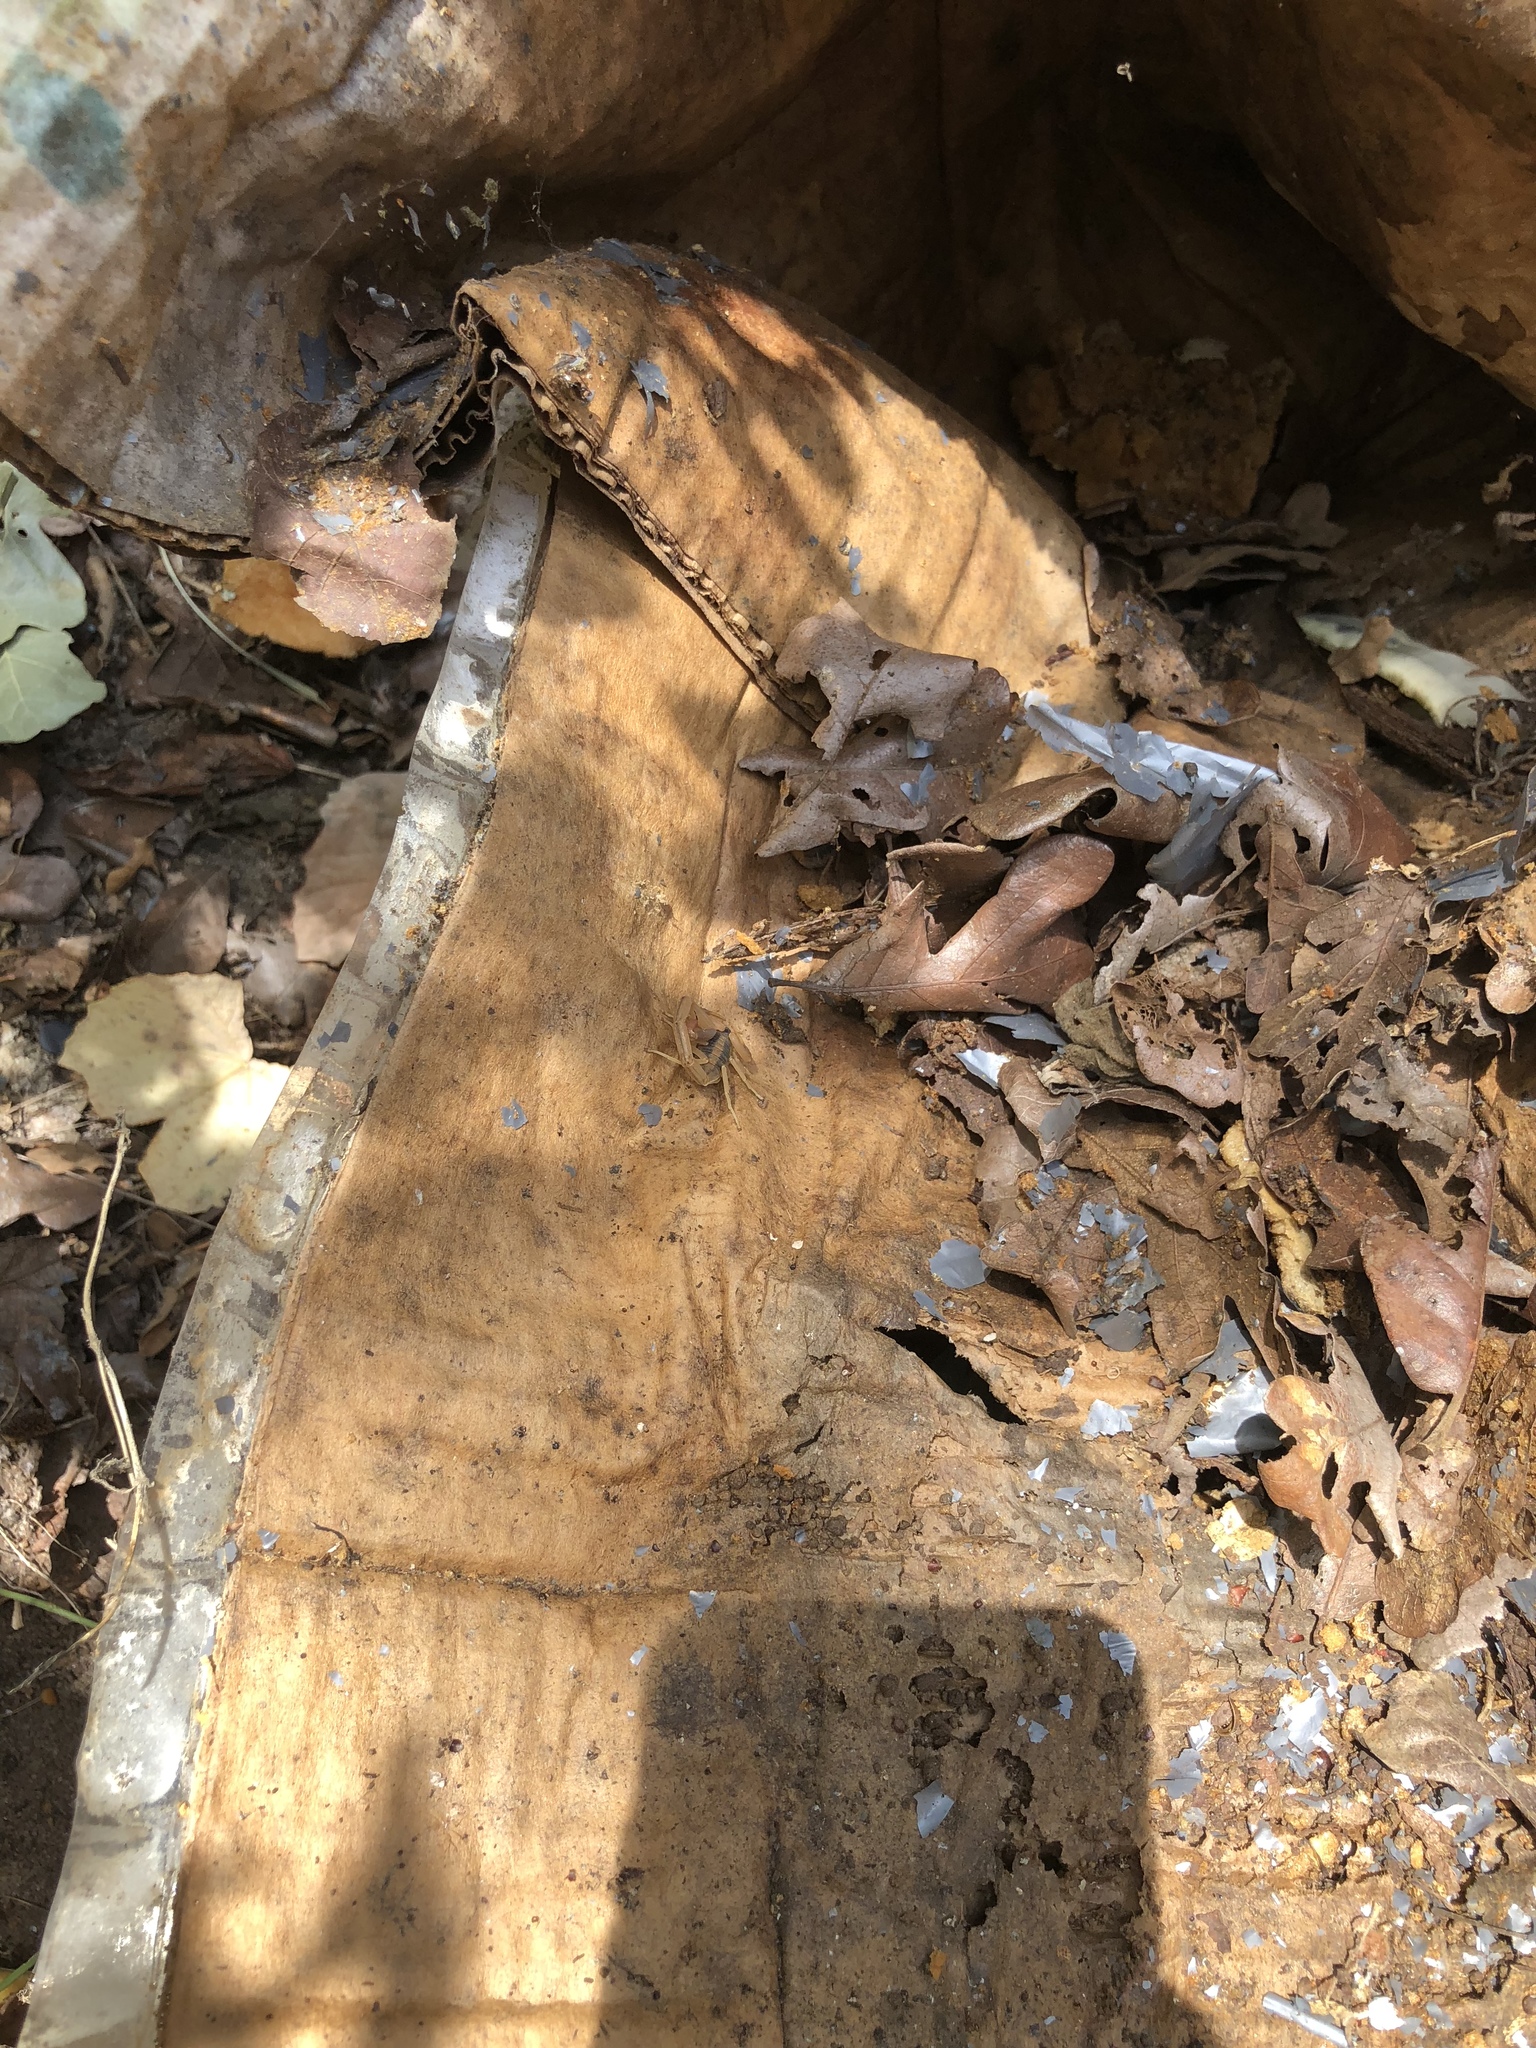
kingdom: Animalia
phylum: Arthropoda
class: Arachnida
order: Scorpiones
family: Buthidae
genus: Centruroides
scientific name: Centruroides vittatus
